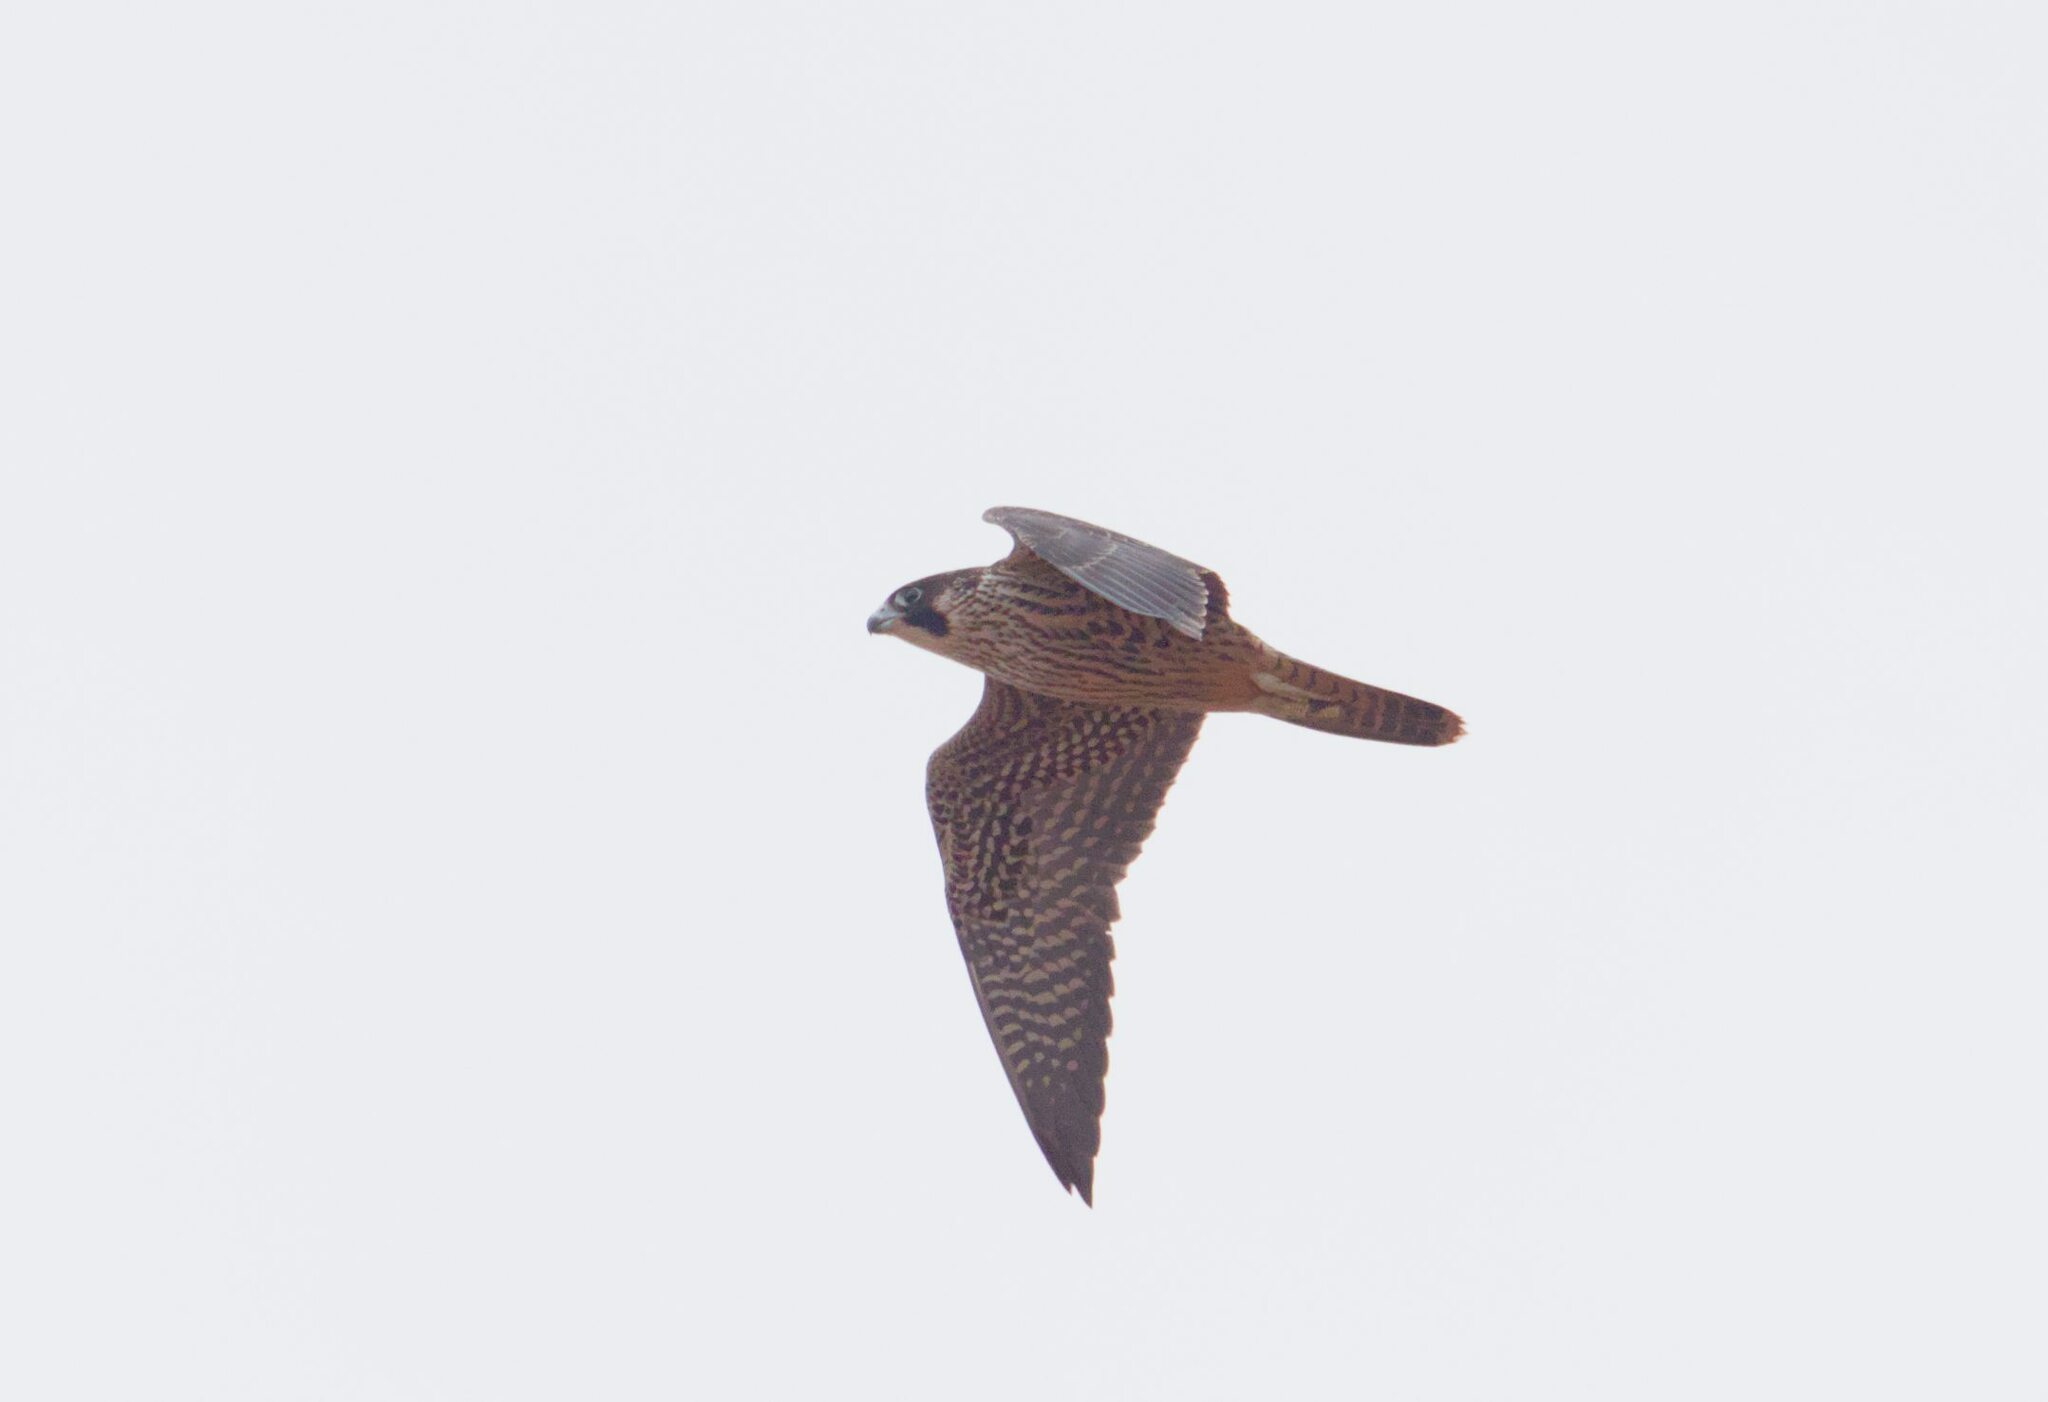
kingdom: Animalia
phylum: Chordata
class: Aves
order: Falconiformes
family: Falconidae
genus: Falco
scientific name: Falco peregrinus
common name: Peregrine falcon
